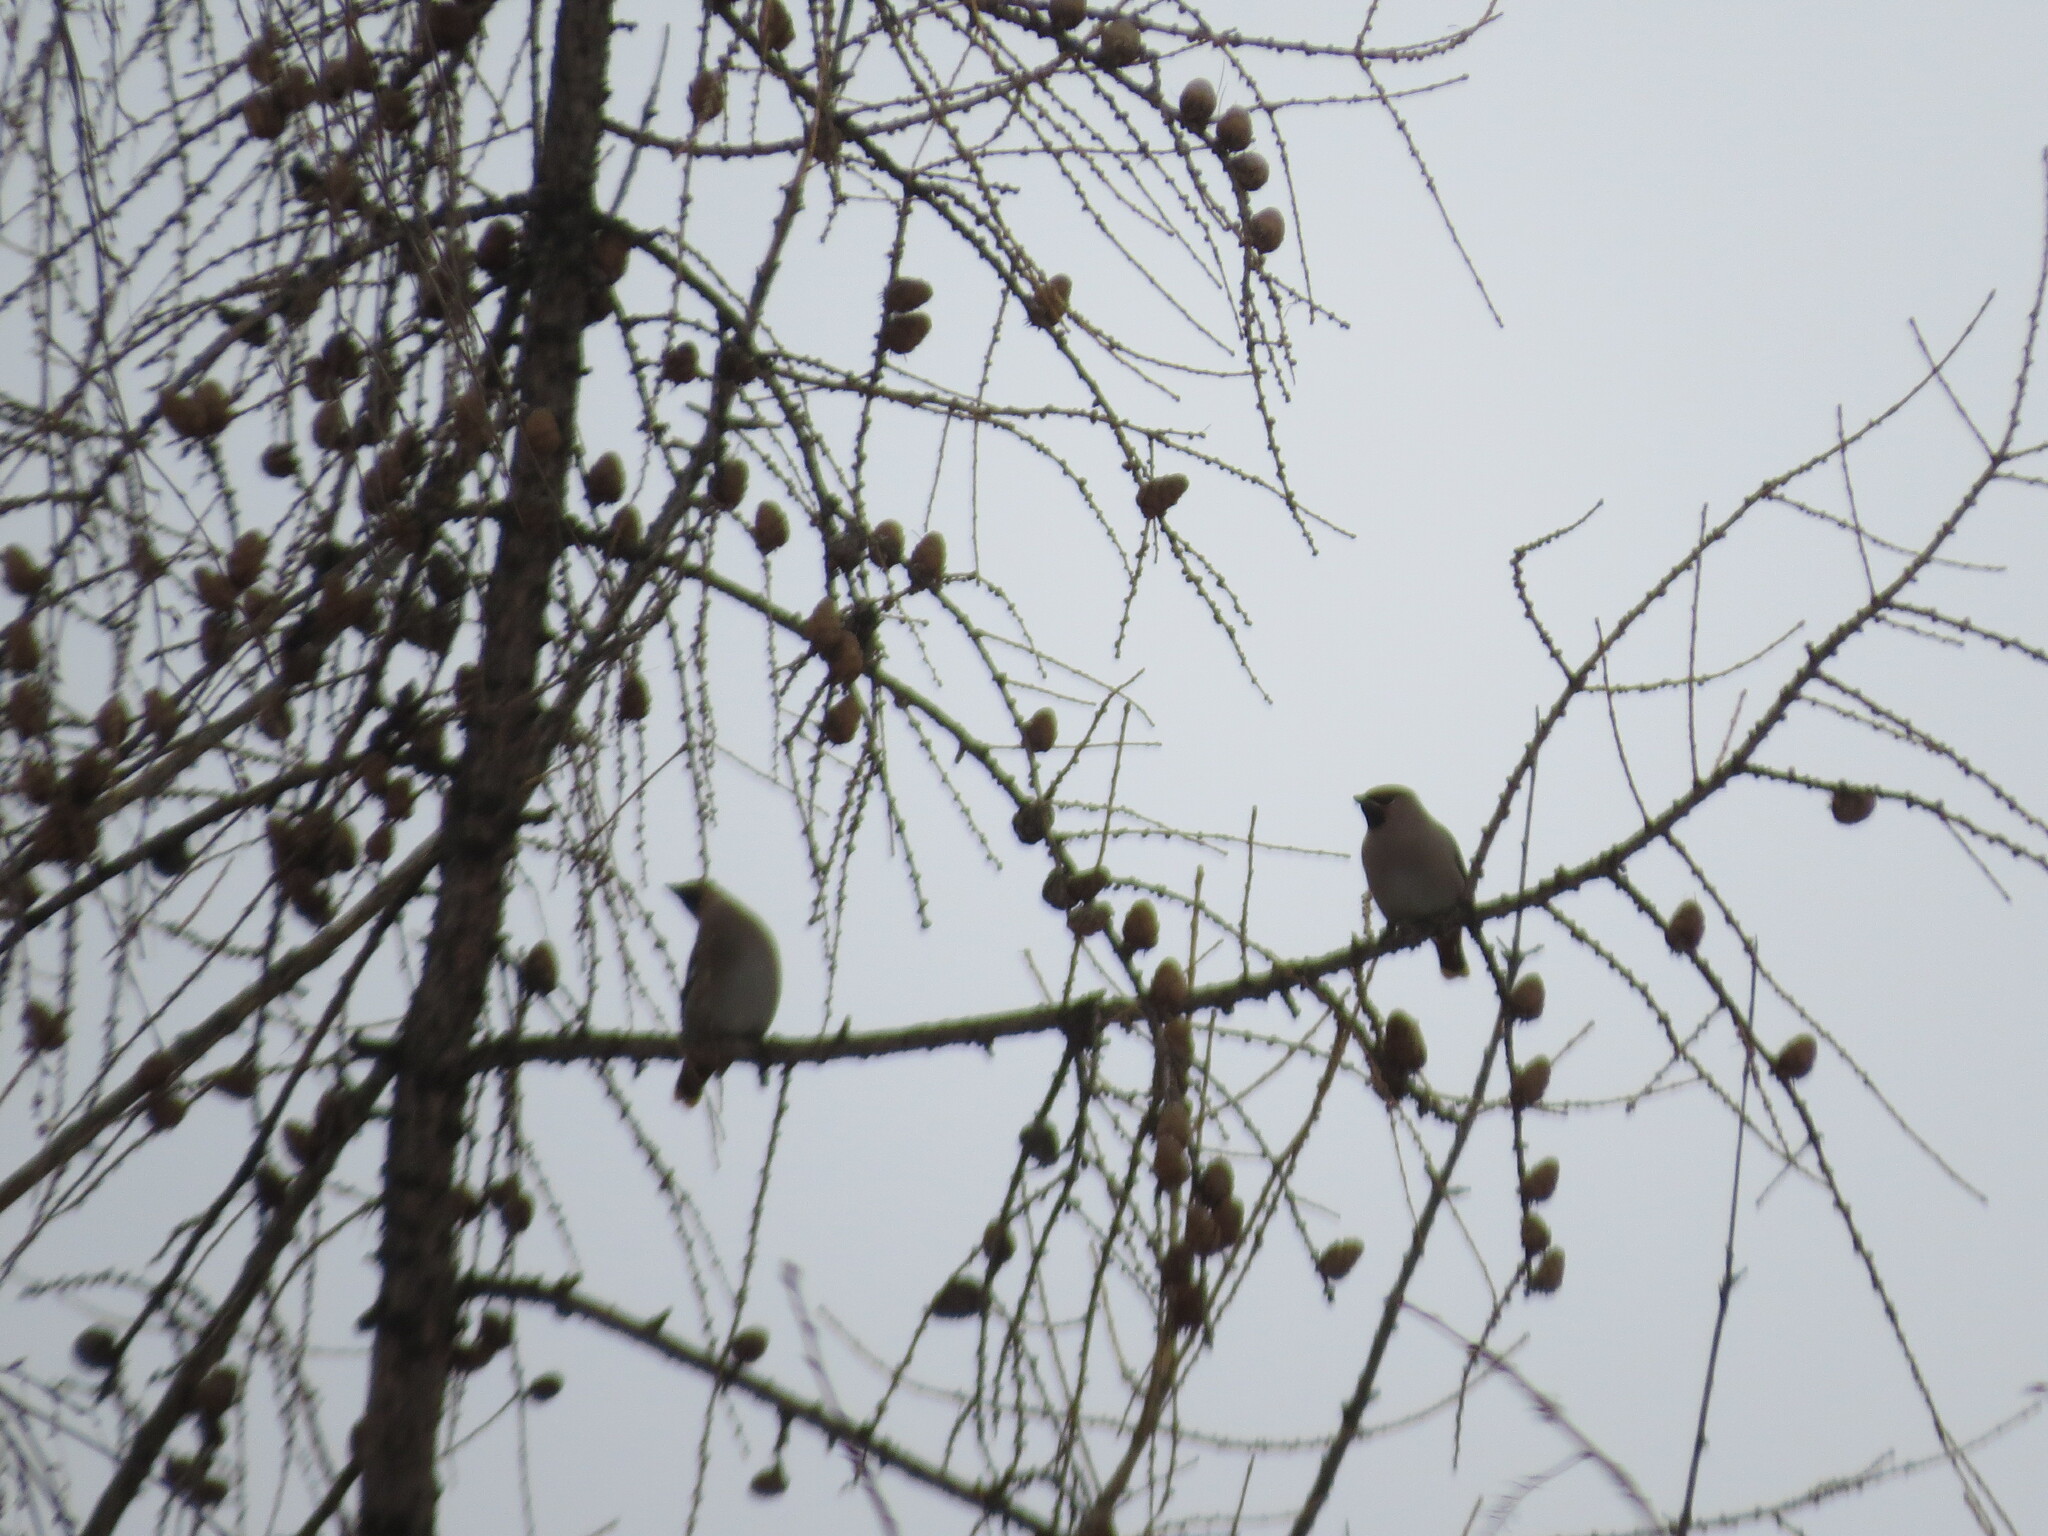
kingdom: Animalia
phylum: Chordata
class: Aves
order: Passeriformes
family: Bombycillidae
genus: Bombycilla
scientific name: Bombycilla garrulus
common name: Bohemian waxwing
